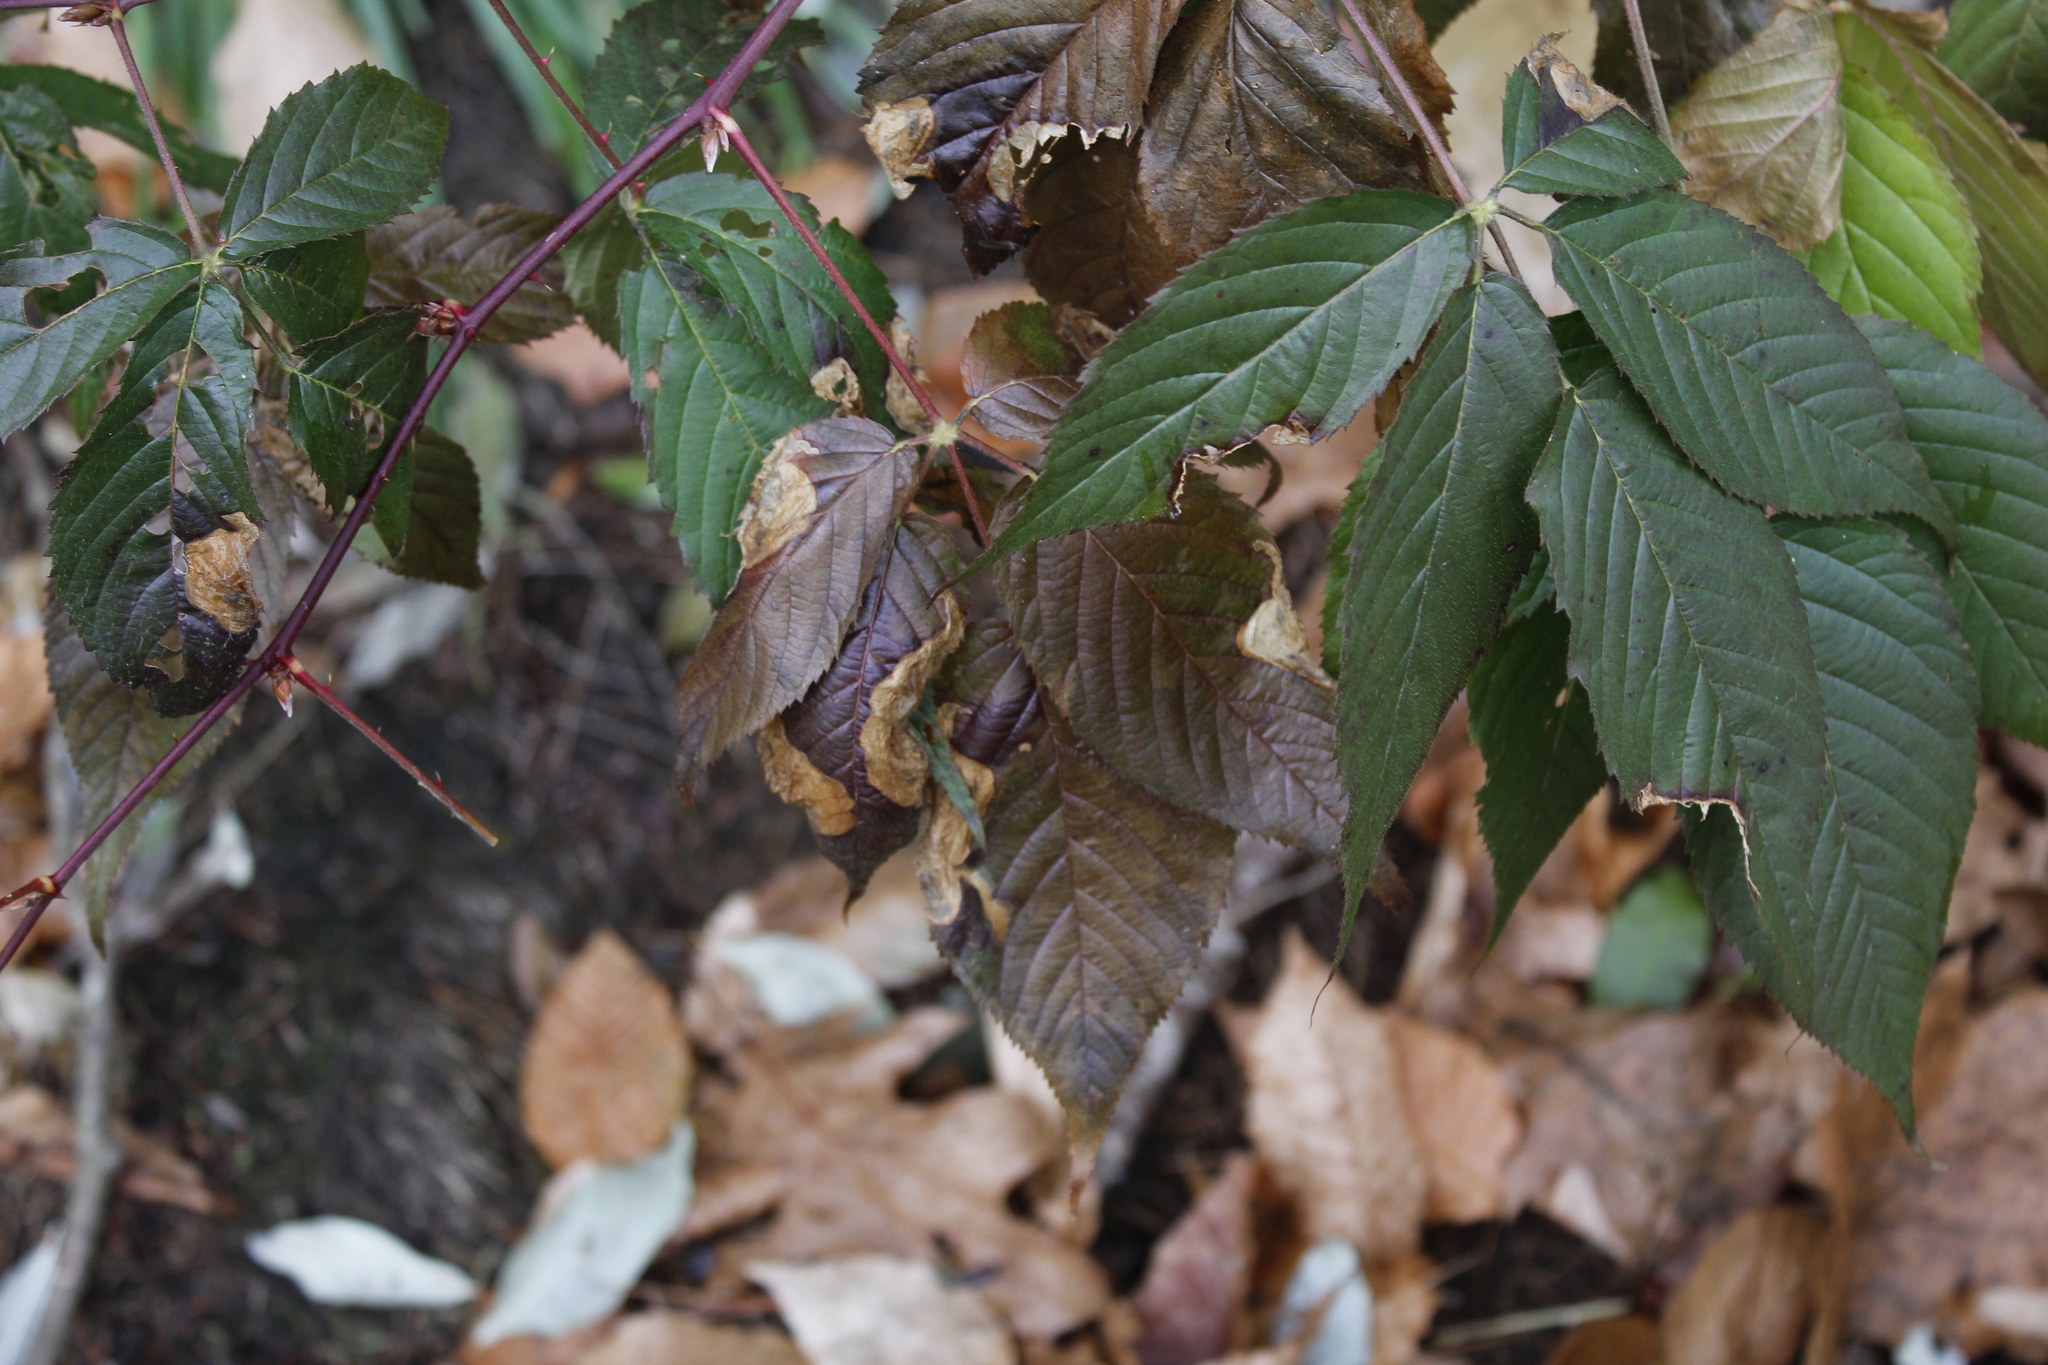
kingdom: Animalia
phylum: Arthropoda
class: Insecta
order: Hymenoptera
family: Tenthredinidae
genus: Metallus
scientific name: Metallus rohweri
